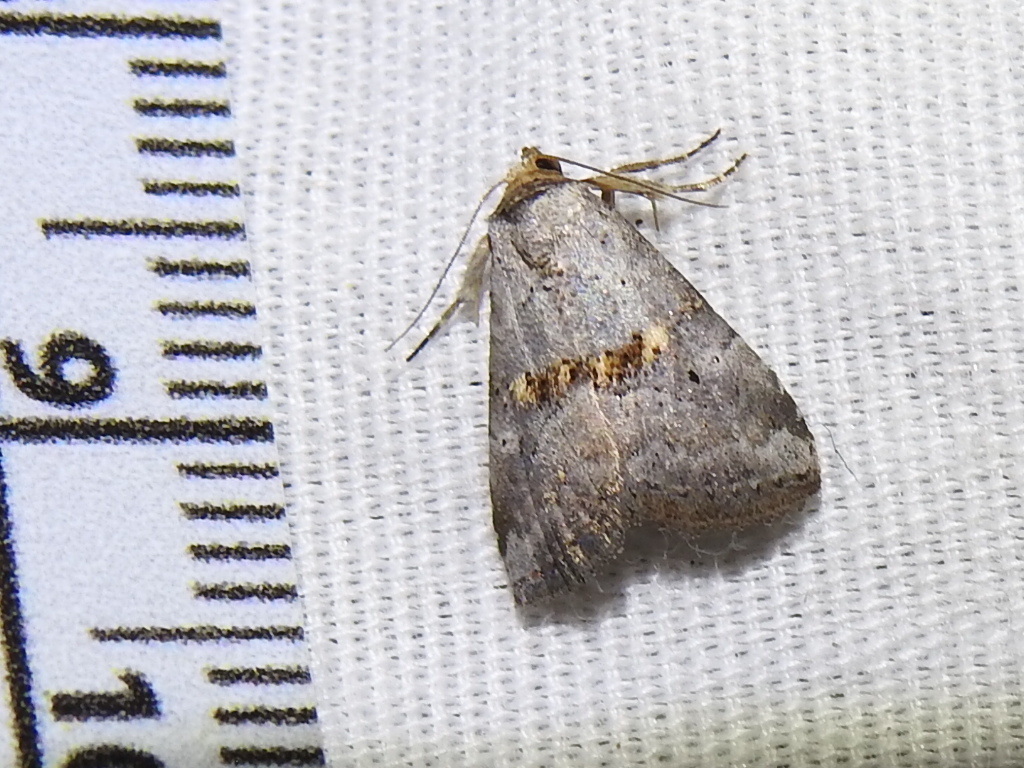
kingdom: Animalia
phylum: Arthropoda
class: Insecta
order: Lepidoptera
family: Erebidae
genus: Hyperstrotia
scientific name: Hyperstrotia flaviguttata
